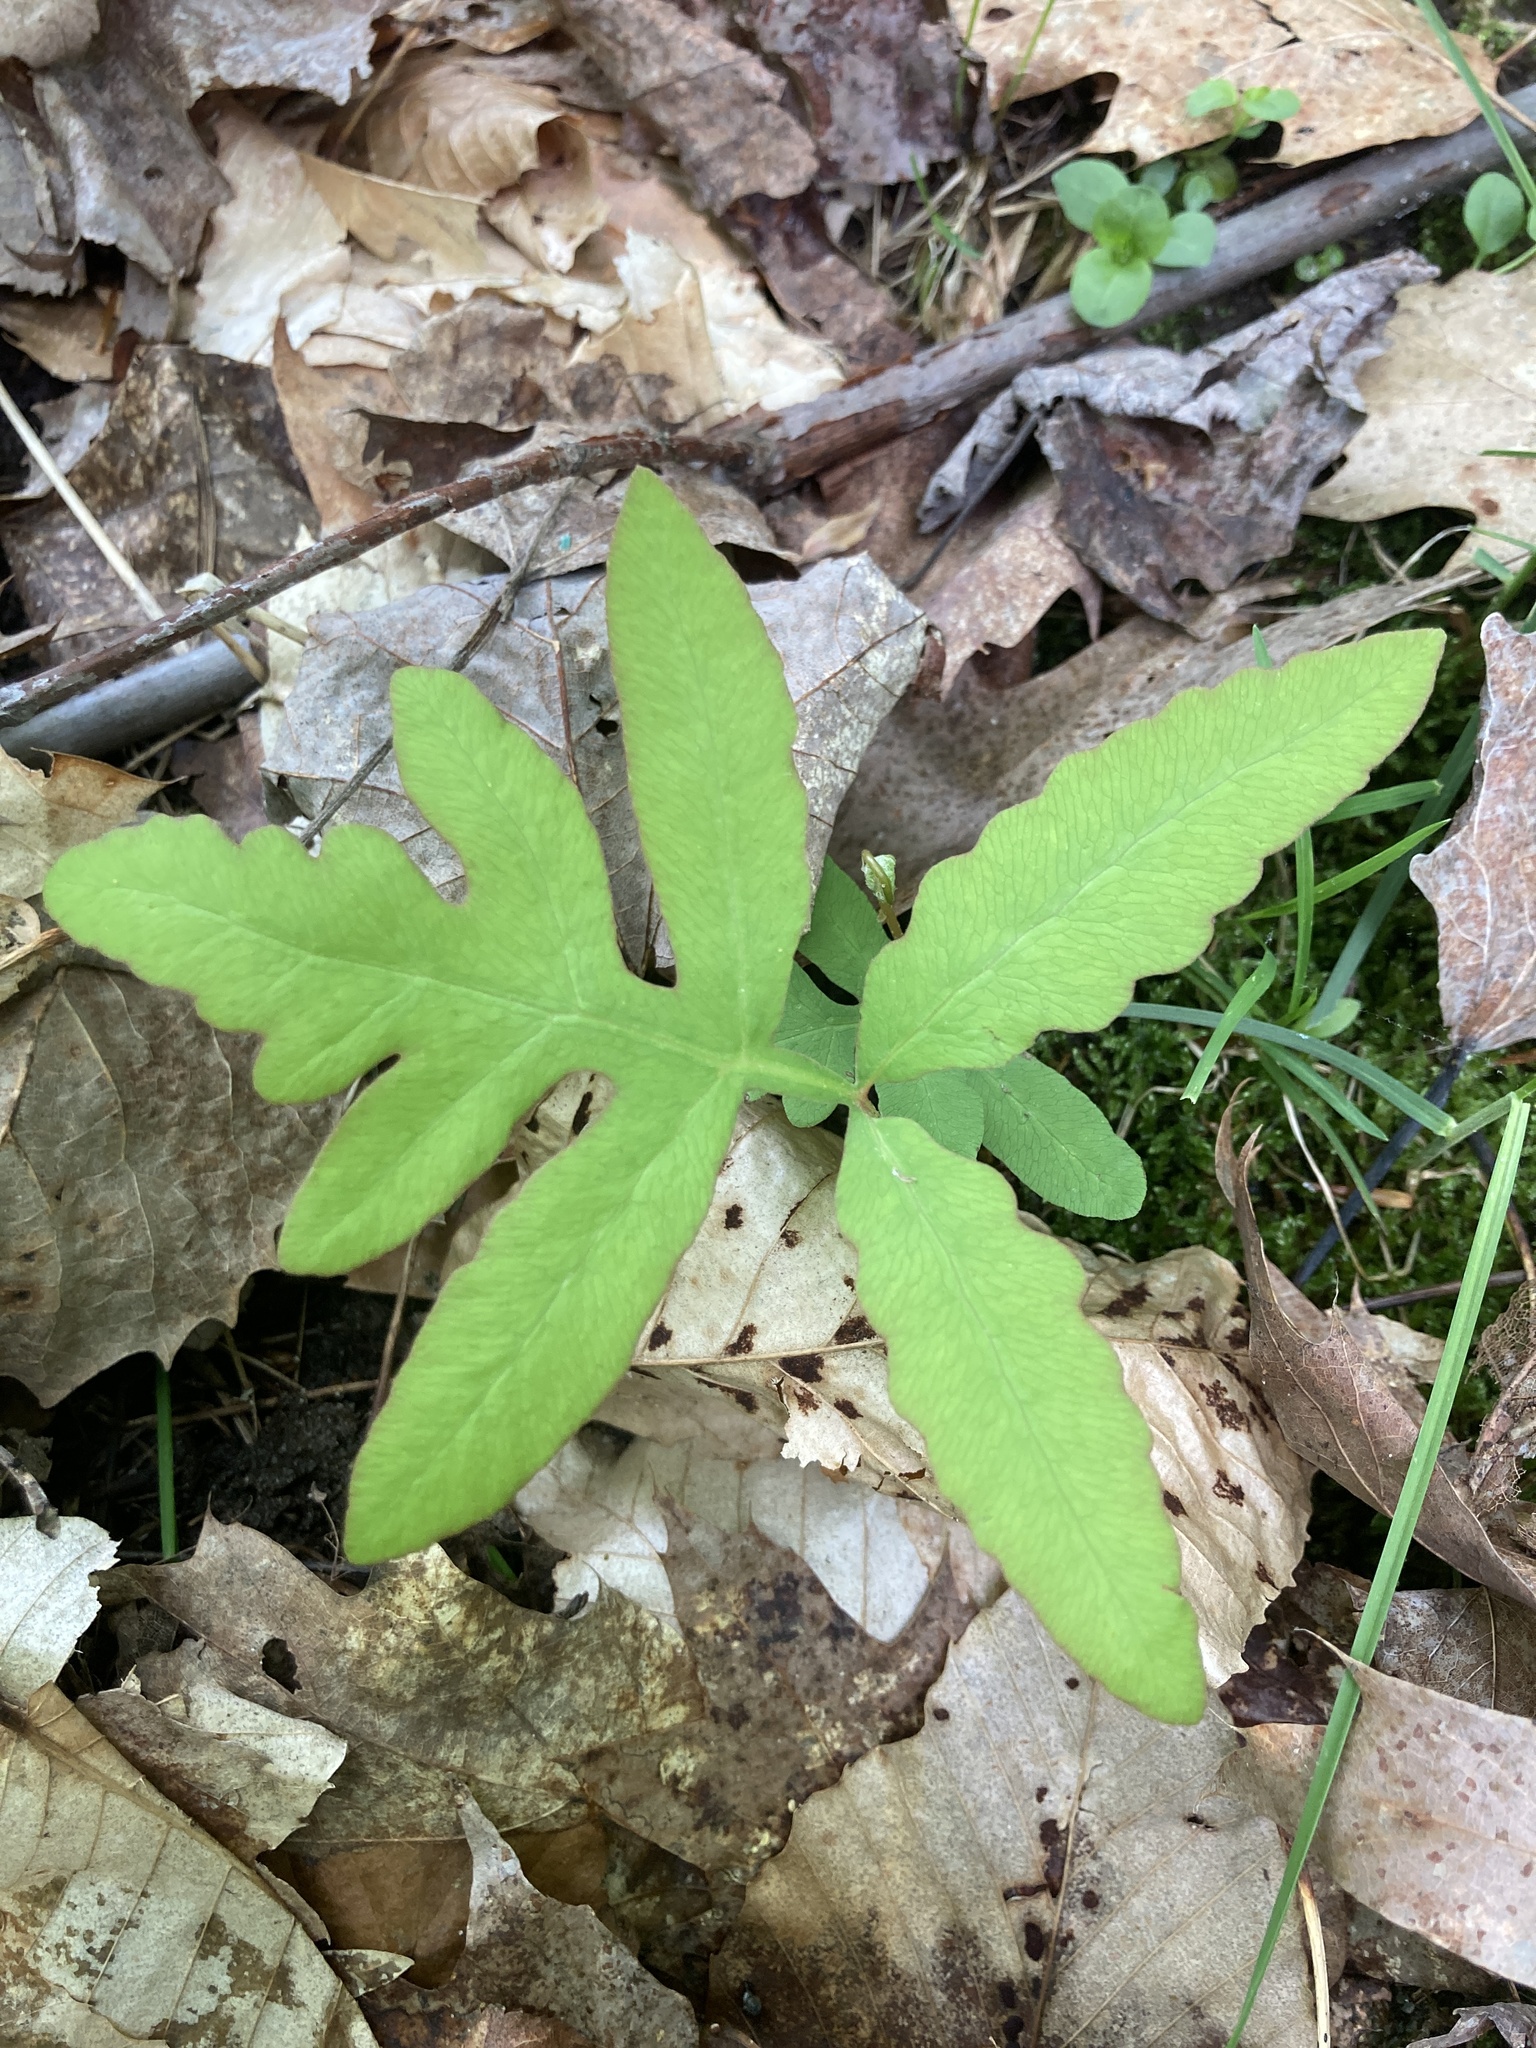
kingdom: Plantae
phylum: Tracheophyta
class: Polypodiopsida
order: Polypodiales
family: Onocleaceae
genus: Onoclea
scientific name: Onoclea sensibilis
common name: Sensitive fern
